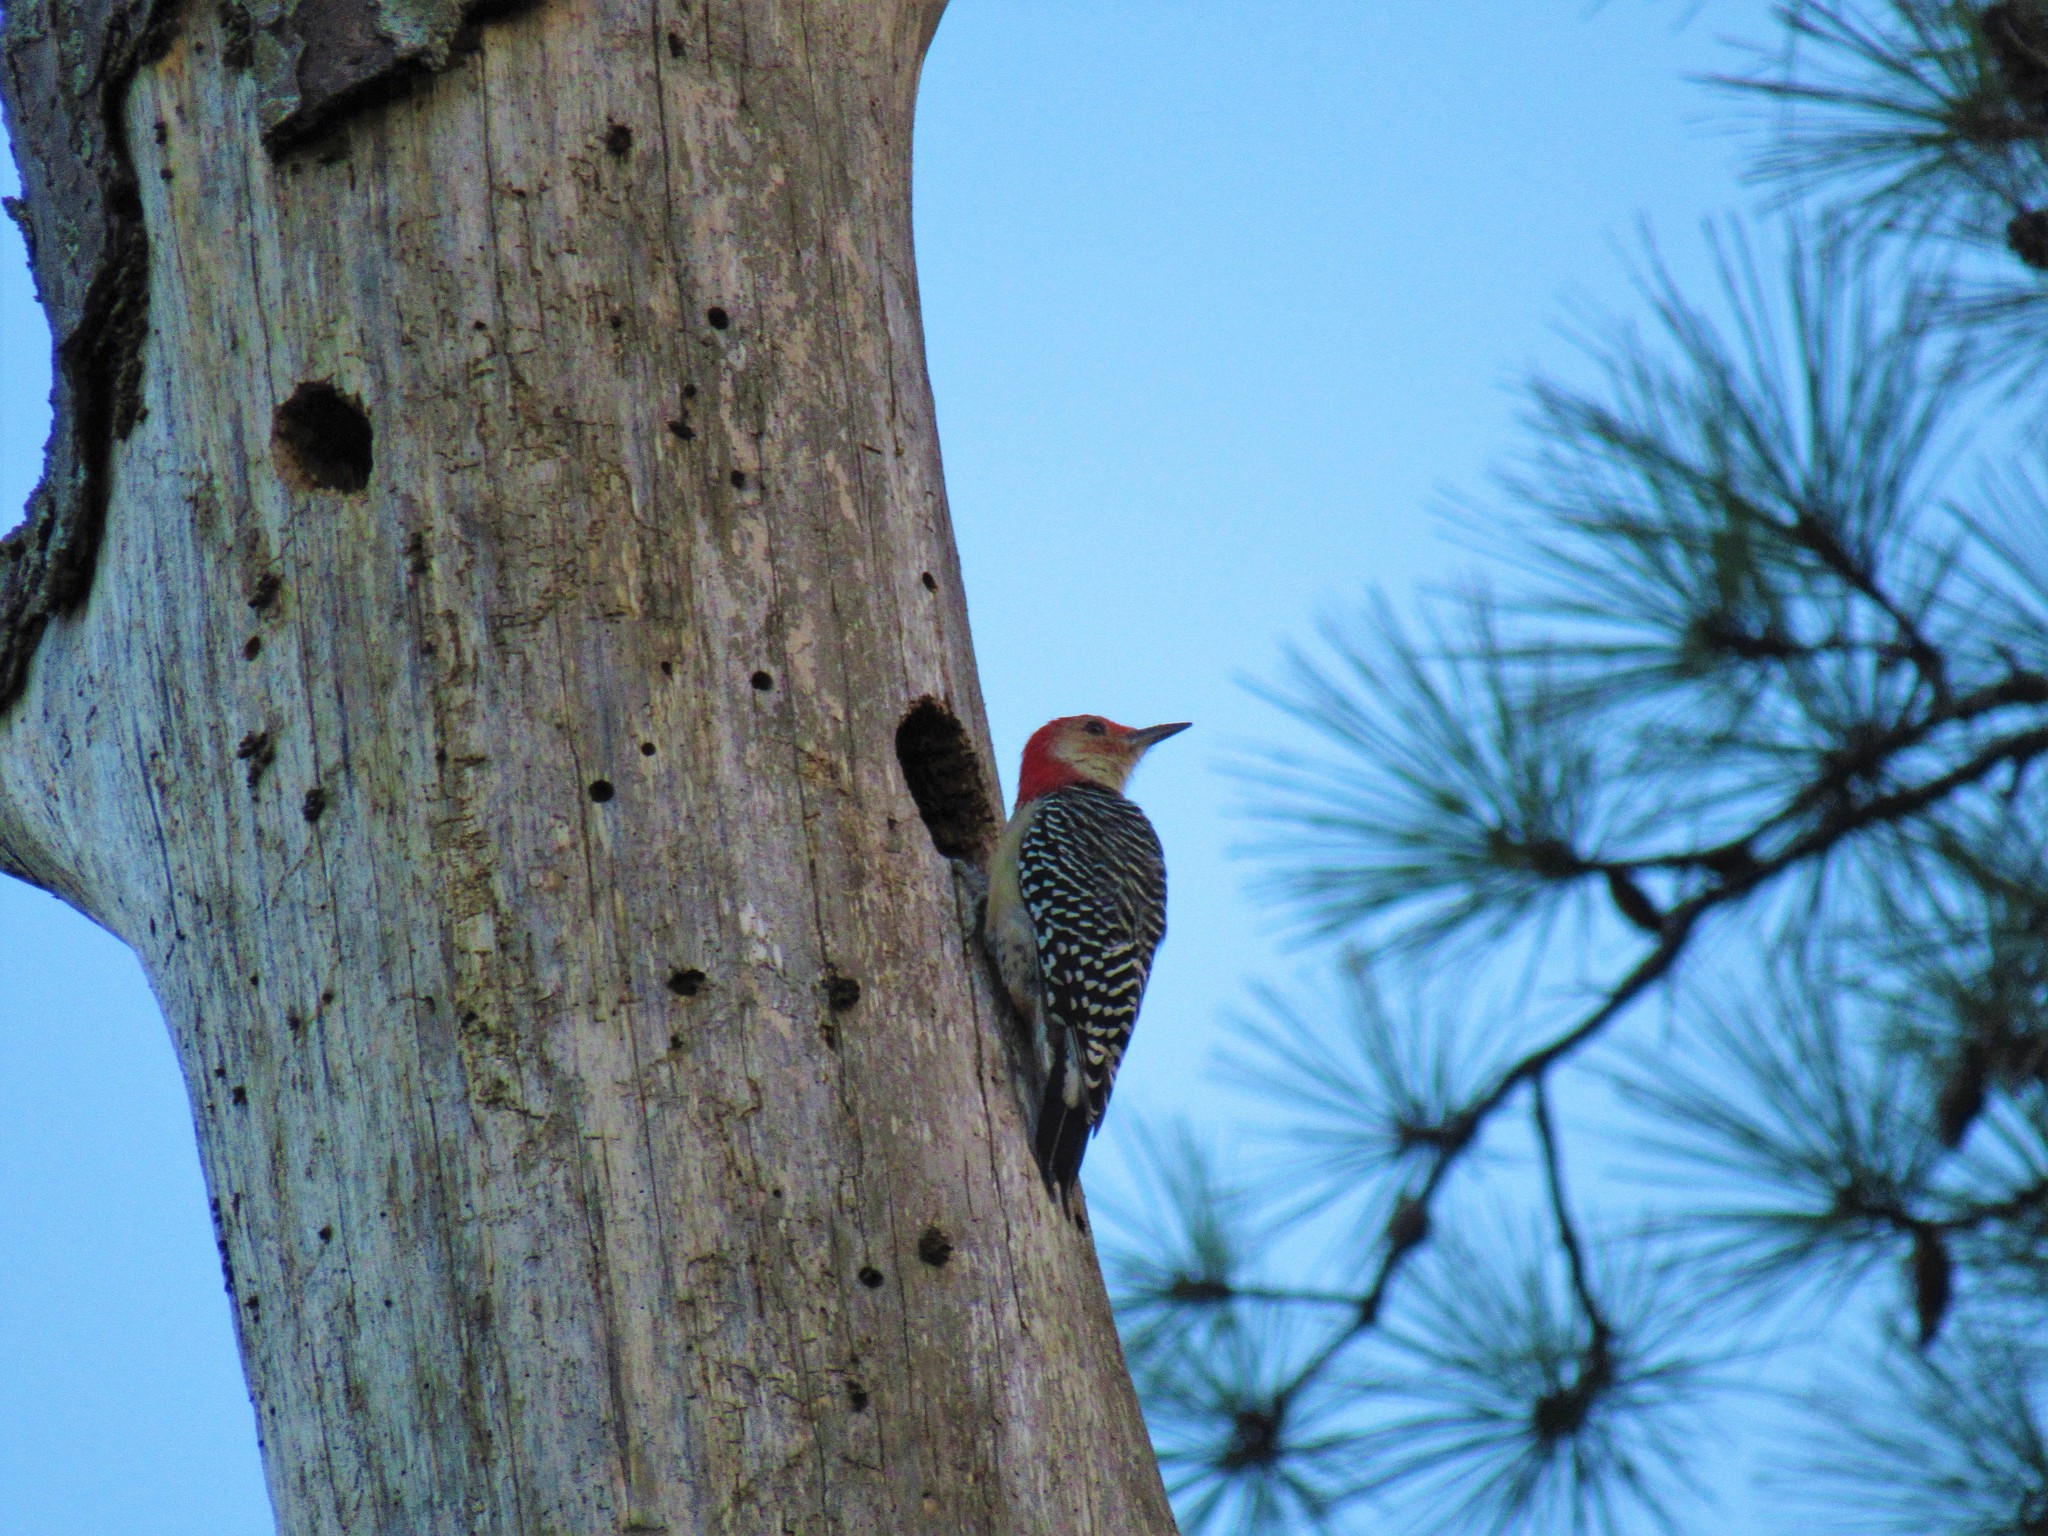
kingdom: Animalia
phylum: Chordata
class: Aves
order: Piciformes
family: Picidae
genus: Melanerpes
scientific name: Melanerpes carolinus
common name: Red-bellied woodpecker
